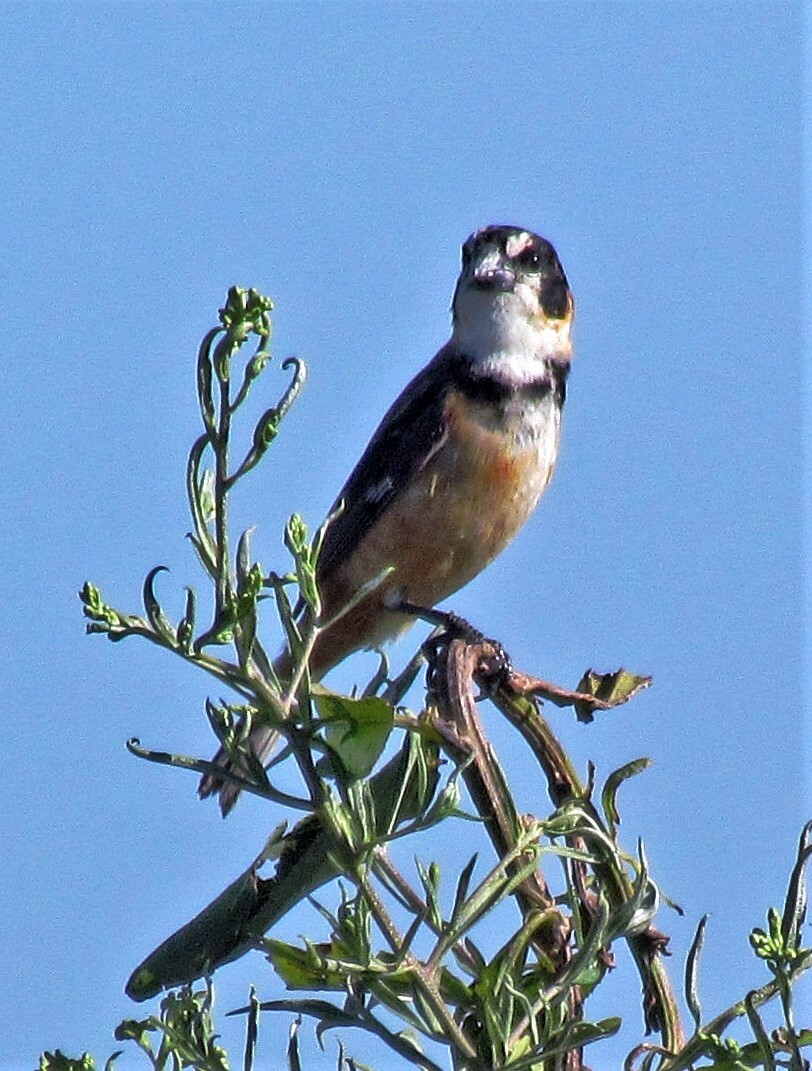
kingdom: Animalia
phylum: Chordata
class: Aves
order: Passeriformes
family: Thraupidae
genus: Sporophila
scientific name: Sporophila collaris
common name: Rusty-collared seedeater
